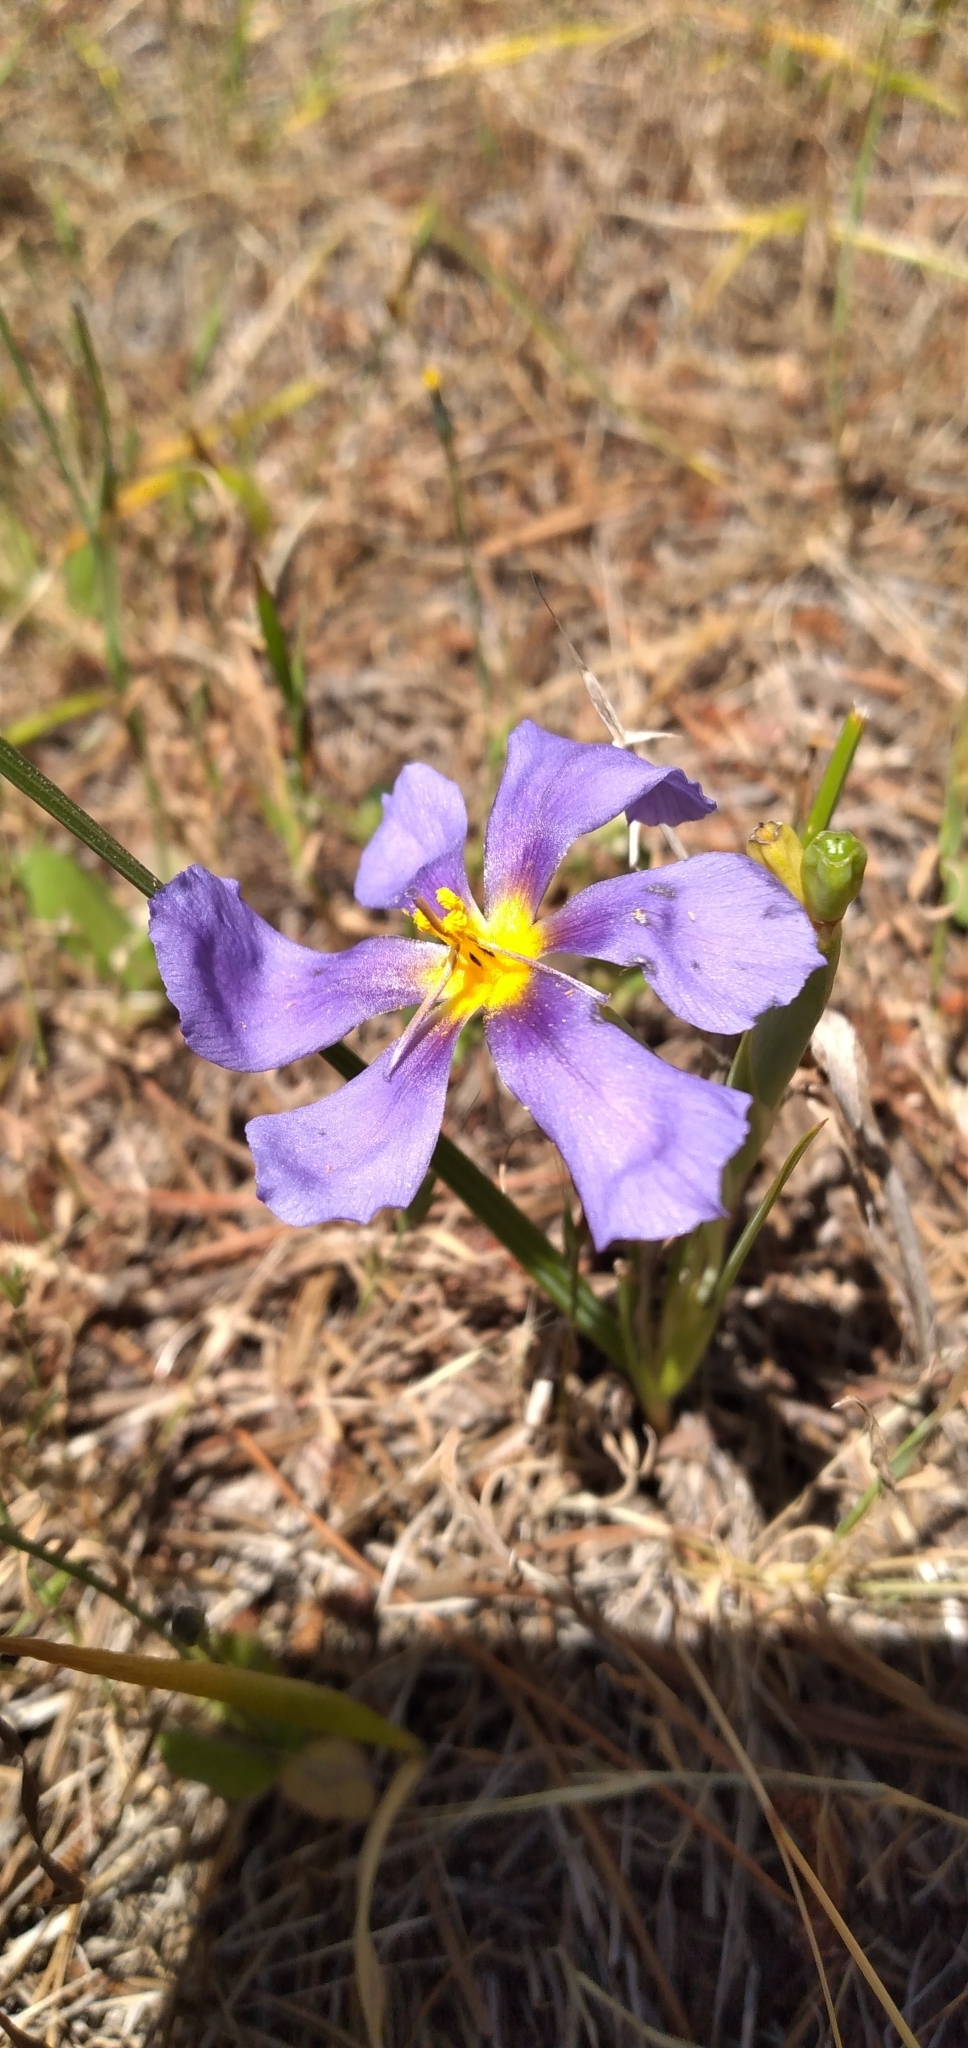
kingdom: Plantae
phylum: Tracheophyta
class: Liliopsida
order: Asparagales
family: Iridaceae
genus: Calydorea
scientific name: Calydorea xiphioides
